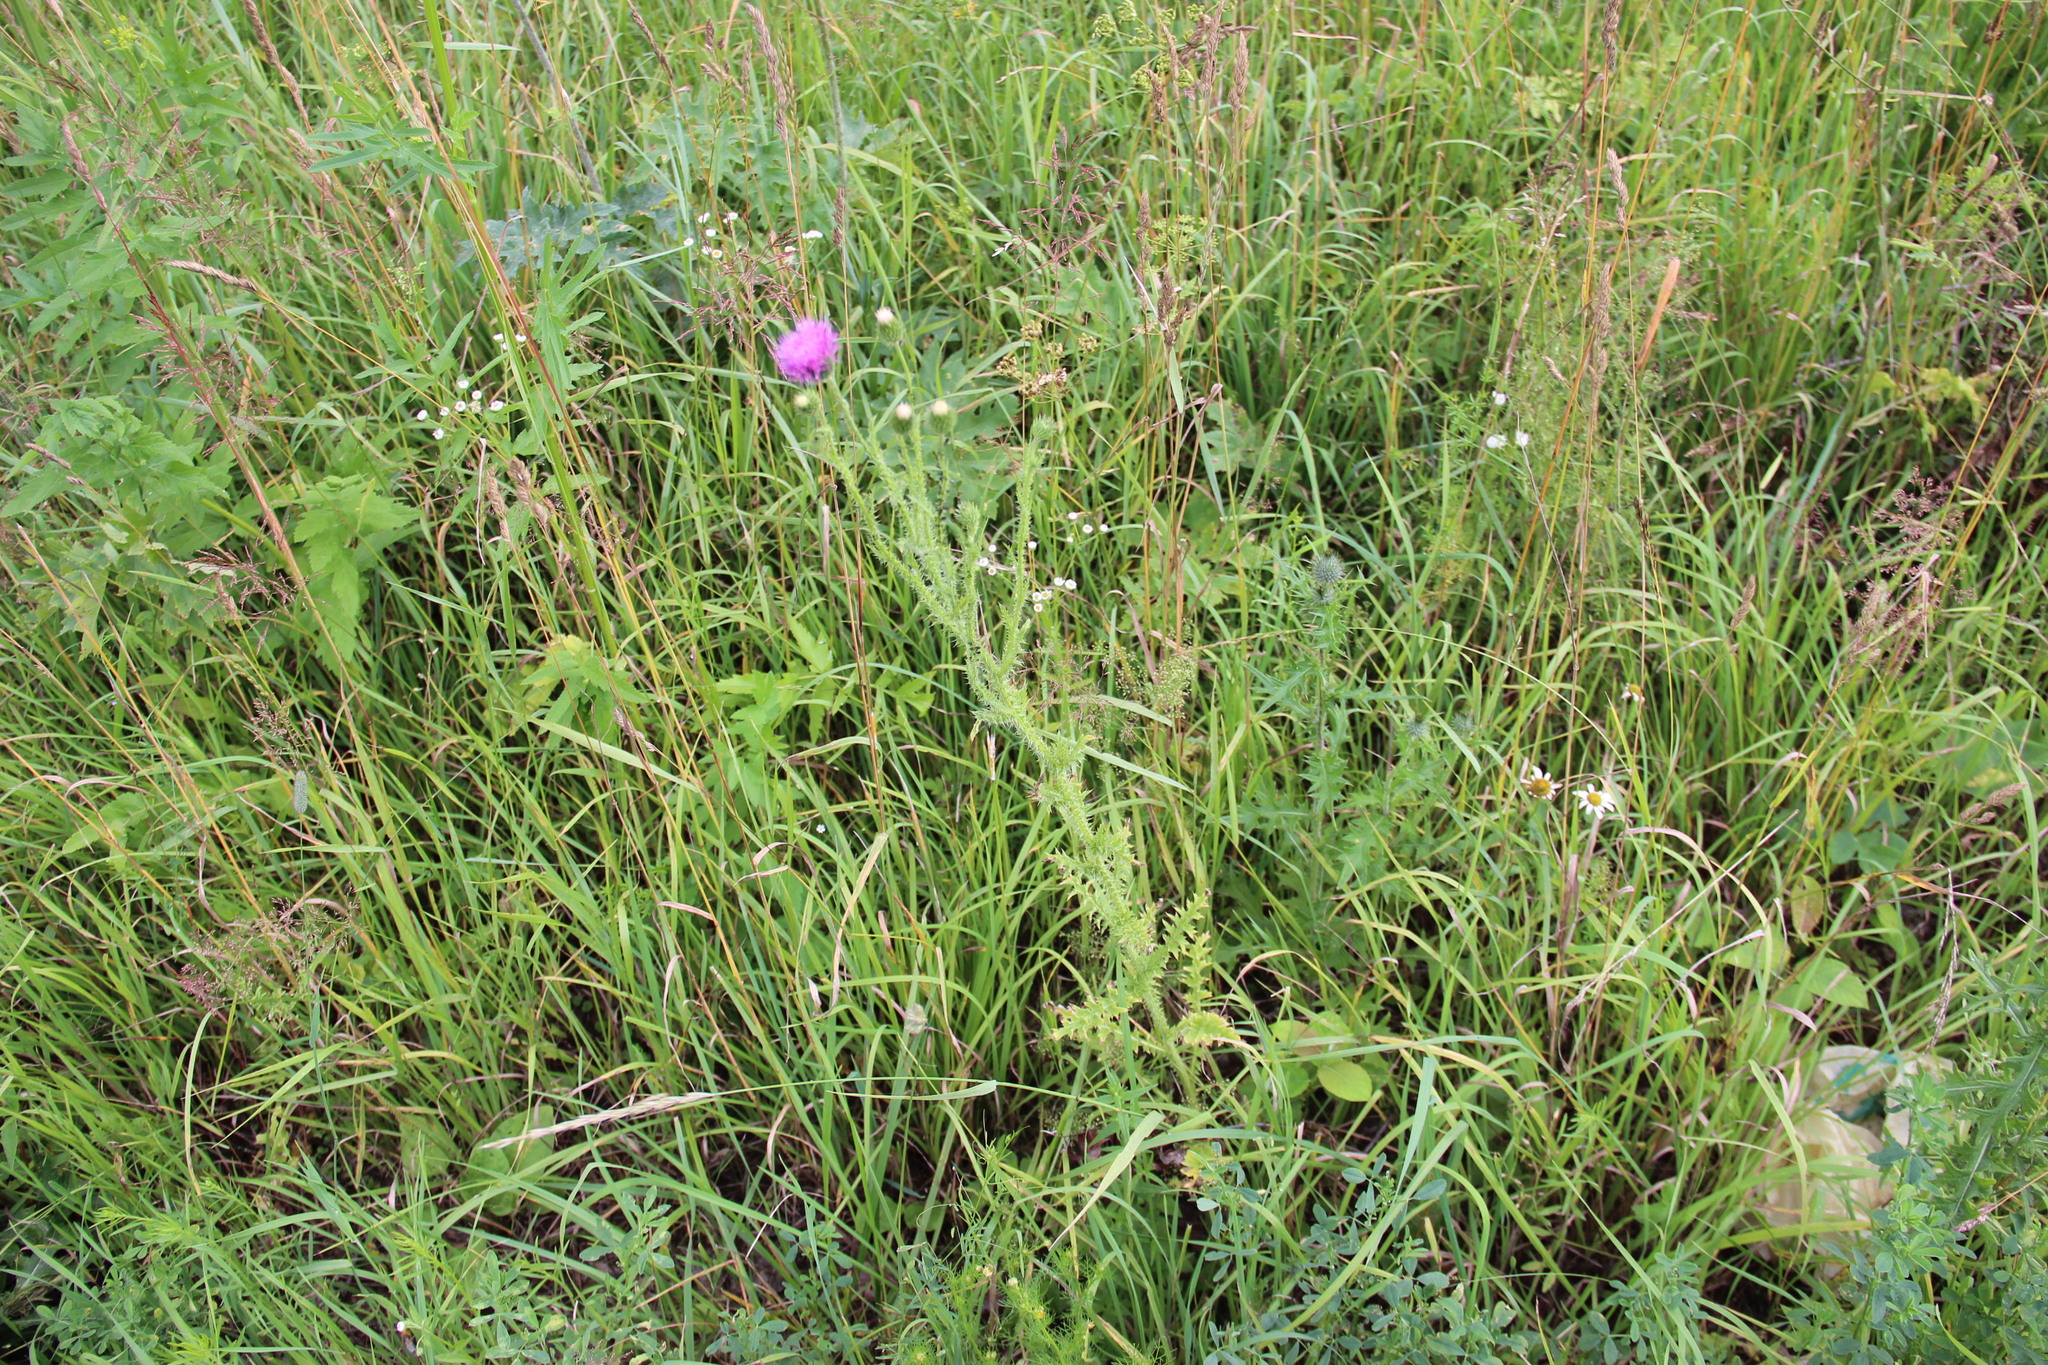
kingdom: Plantae
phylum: Tracheophyta
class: Magnoliopsida
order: Asterales
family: Asteraceae
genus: Carduus
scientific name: Carduus acanthoides
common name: Plumeless thistle
